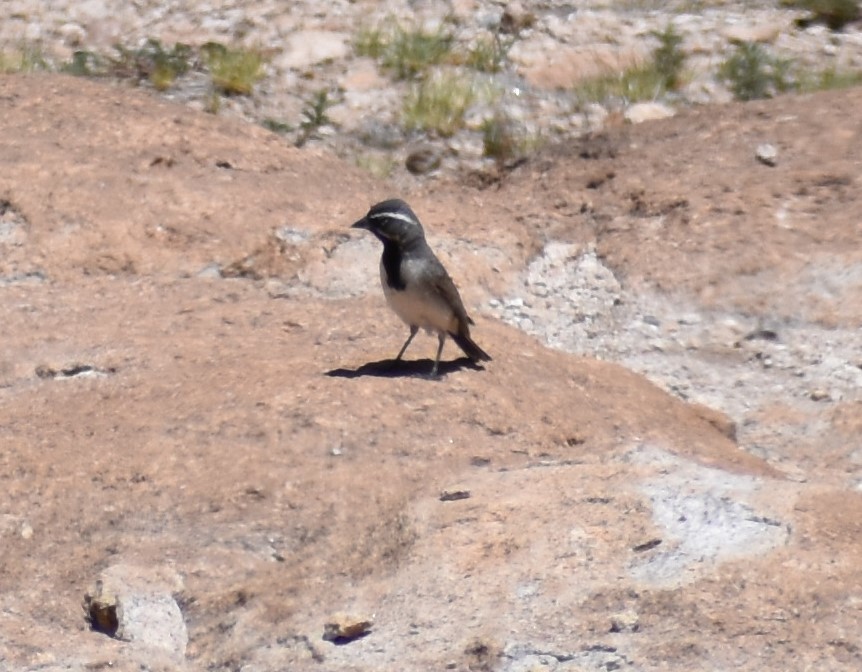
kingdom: Animalia
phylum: Chordata
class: Aves
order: Passeriformes
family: Passerellidae
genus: Amphispiza
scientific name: Amphispiza bilineata
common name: Black-throated sparrow
